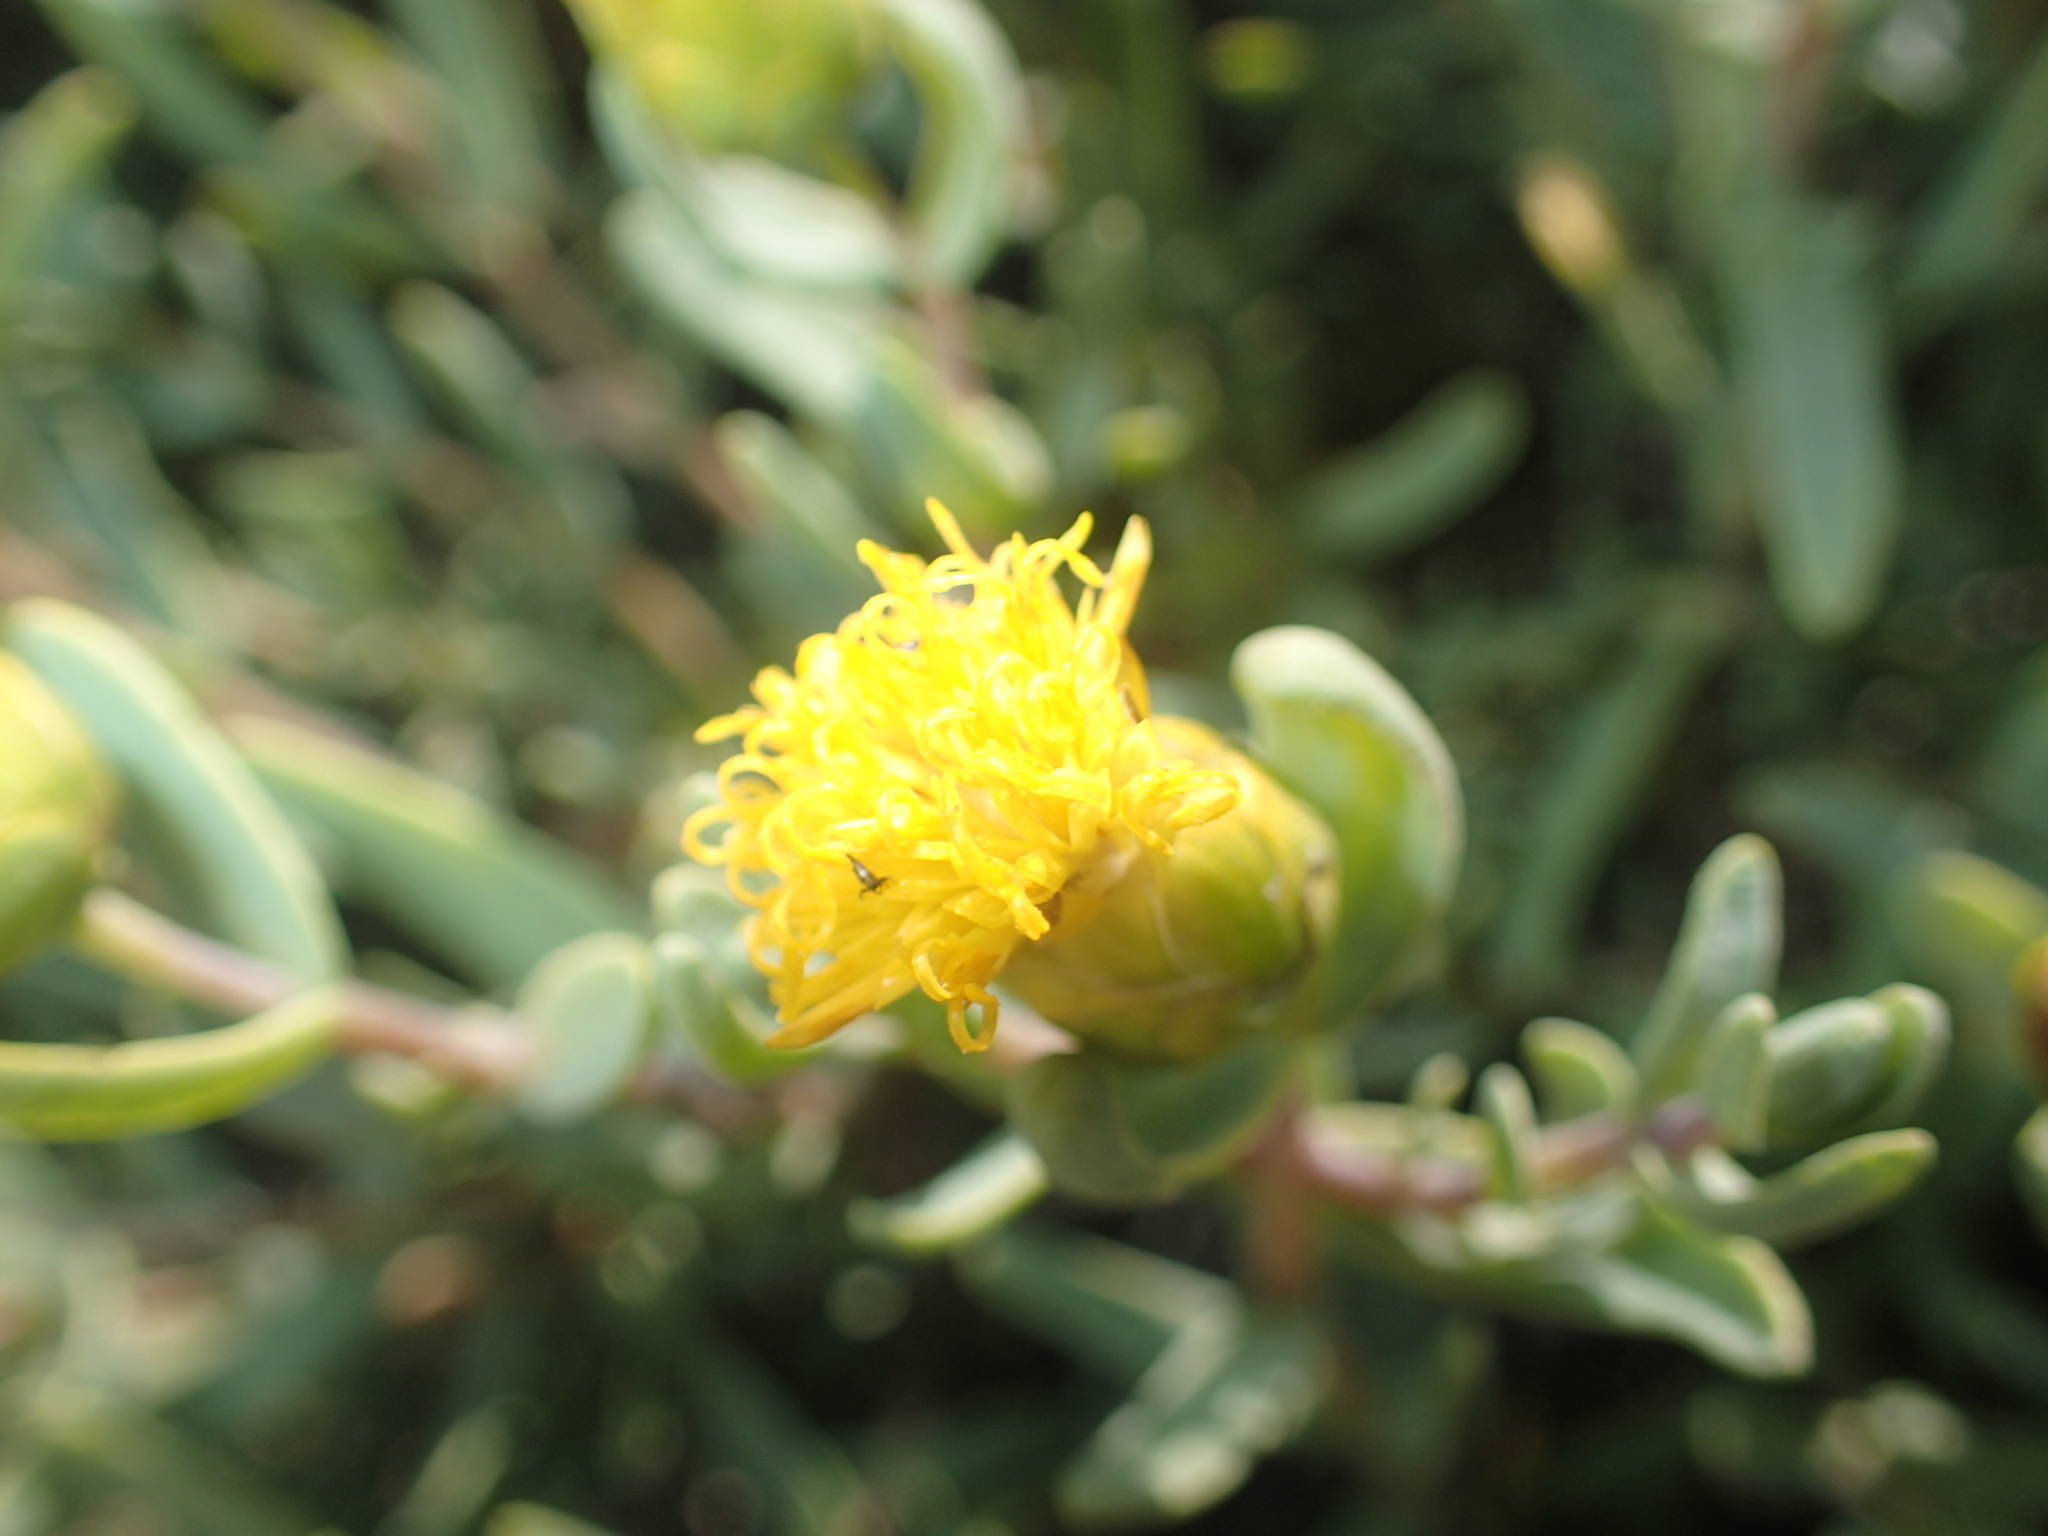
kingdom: Plantae
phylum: Tracheophyta
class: Magnoliopsida
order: Asterales
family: Asteraceae
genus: Pteronia
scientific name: Pteronia glabrata
